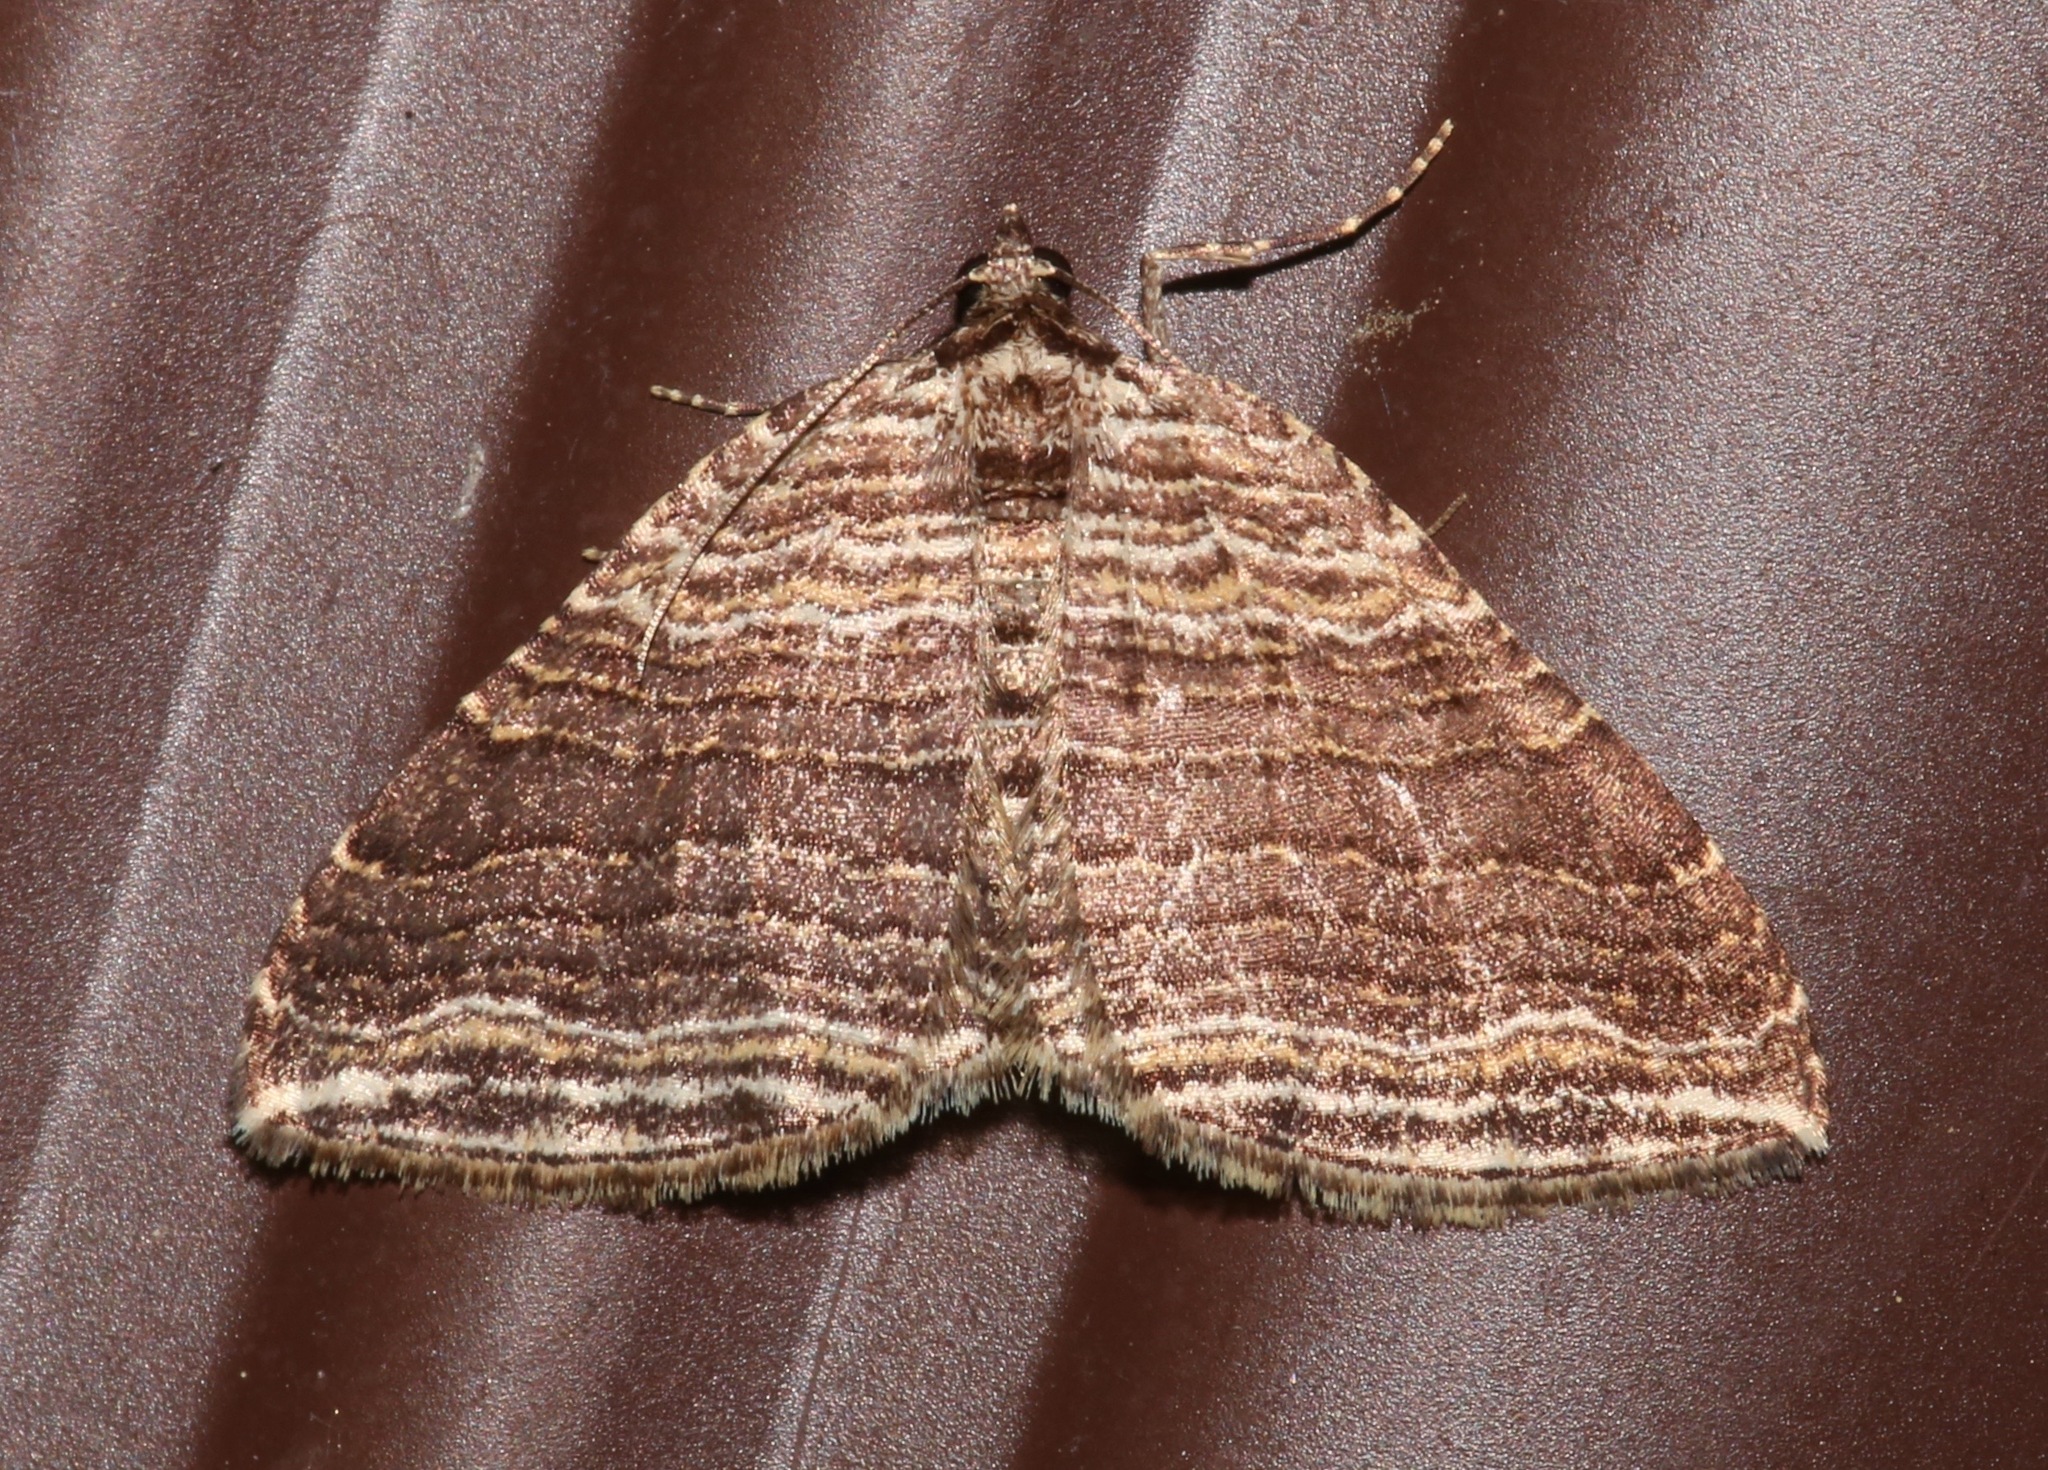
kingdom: Animalia
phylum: Arthropoda
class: Insecta
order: Lepidoptera
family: Geometridae
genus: Anticlea
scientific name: Anticlea multiferata
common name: Many-lined carpet
